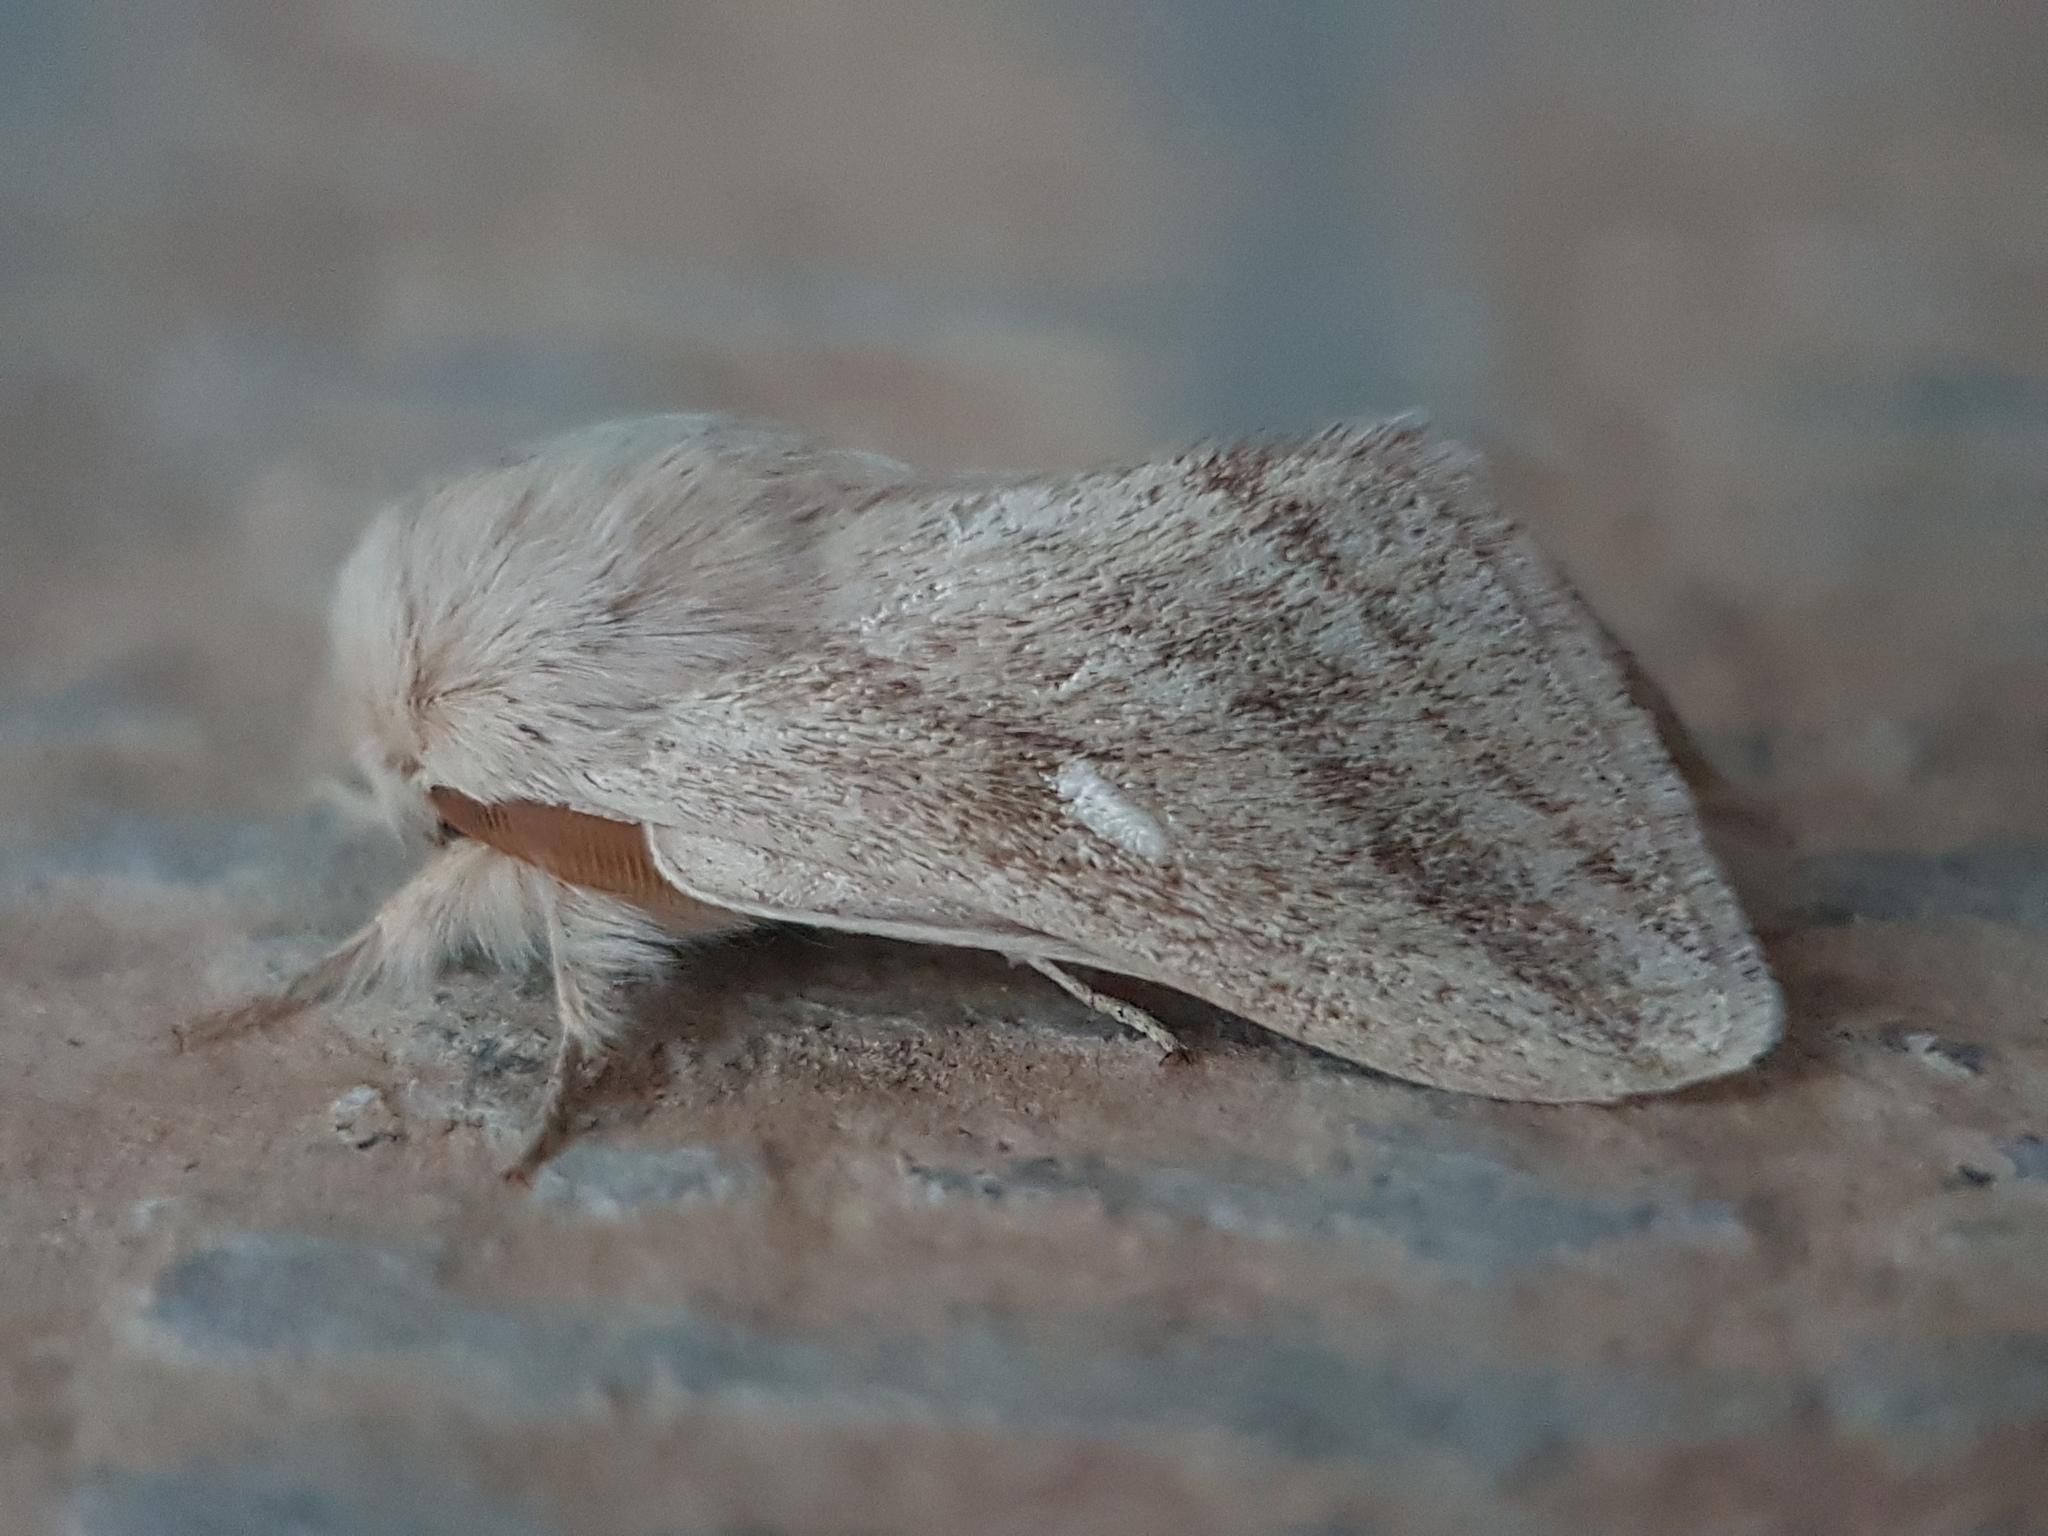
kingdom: Animalia
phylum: Arthropoda
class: Insecta
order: Lepidoptera
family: Lasiocampidae
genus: Chilena
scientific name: Chilena sordida
